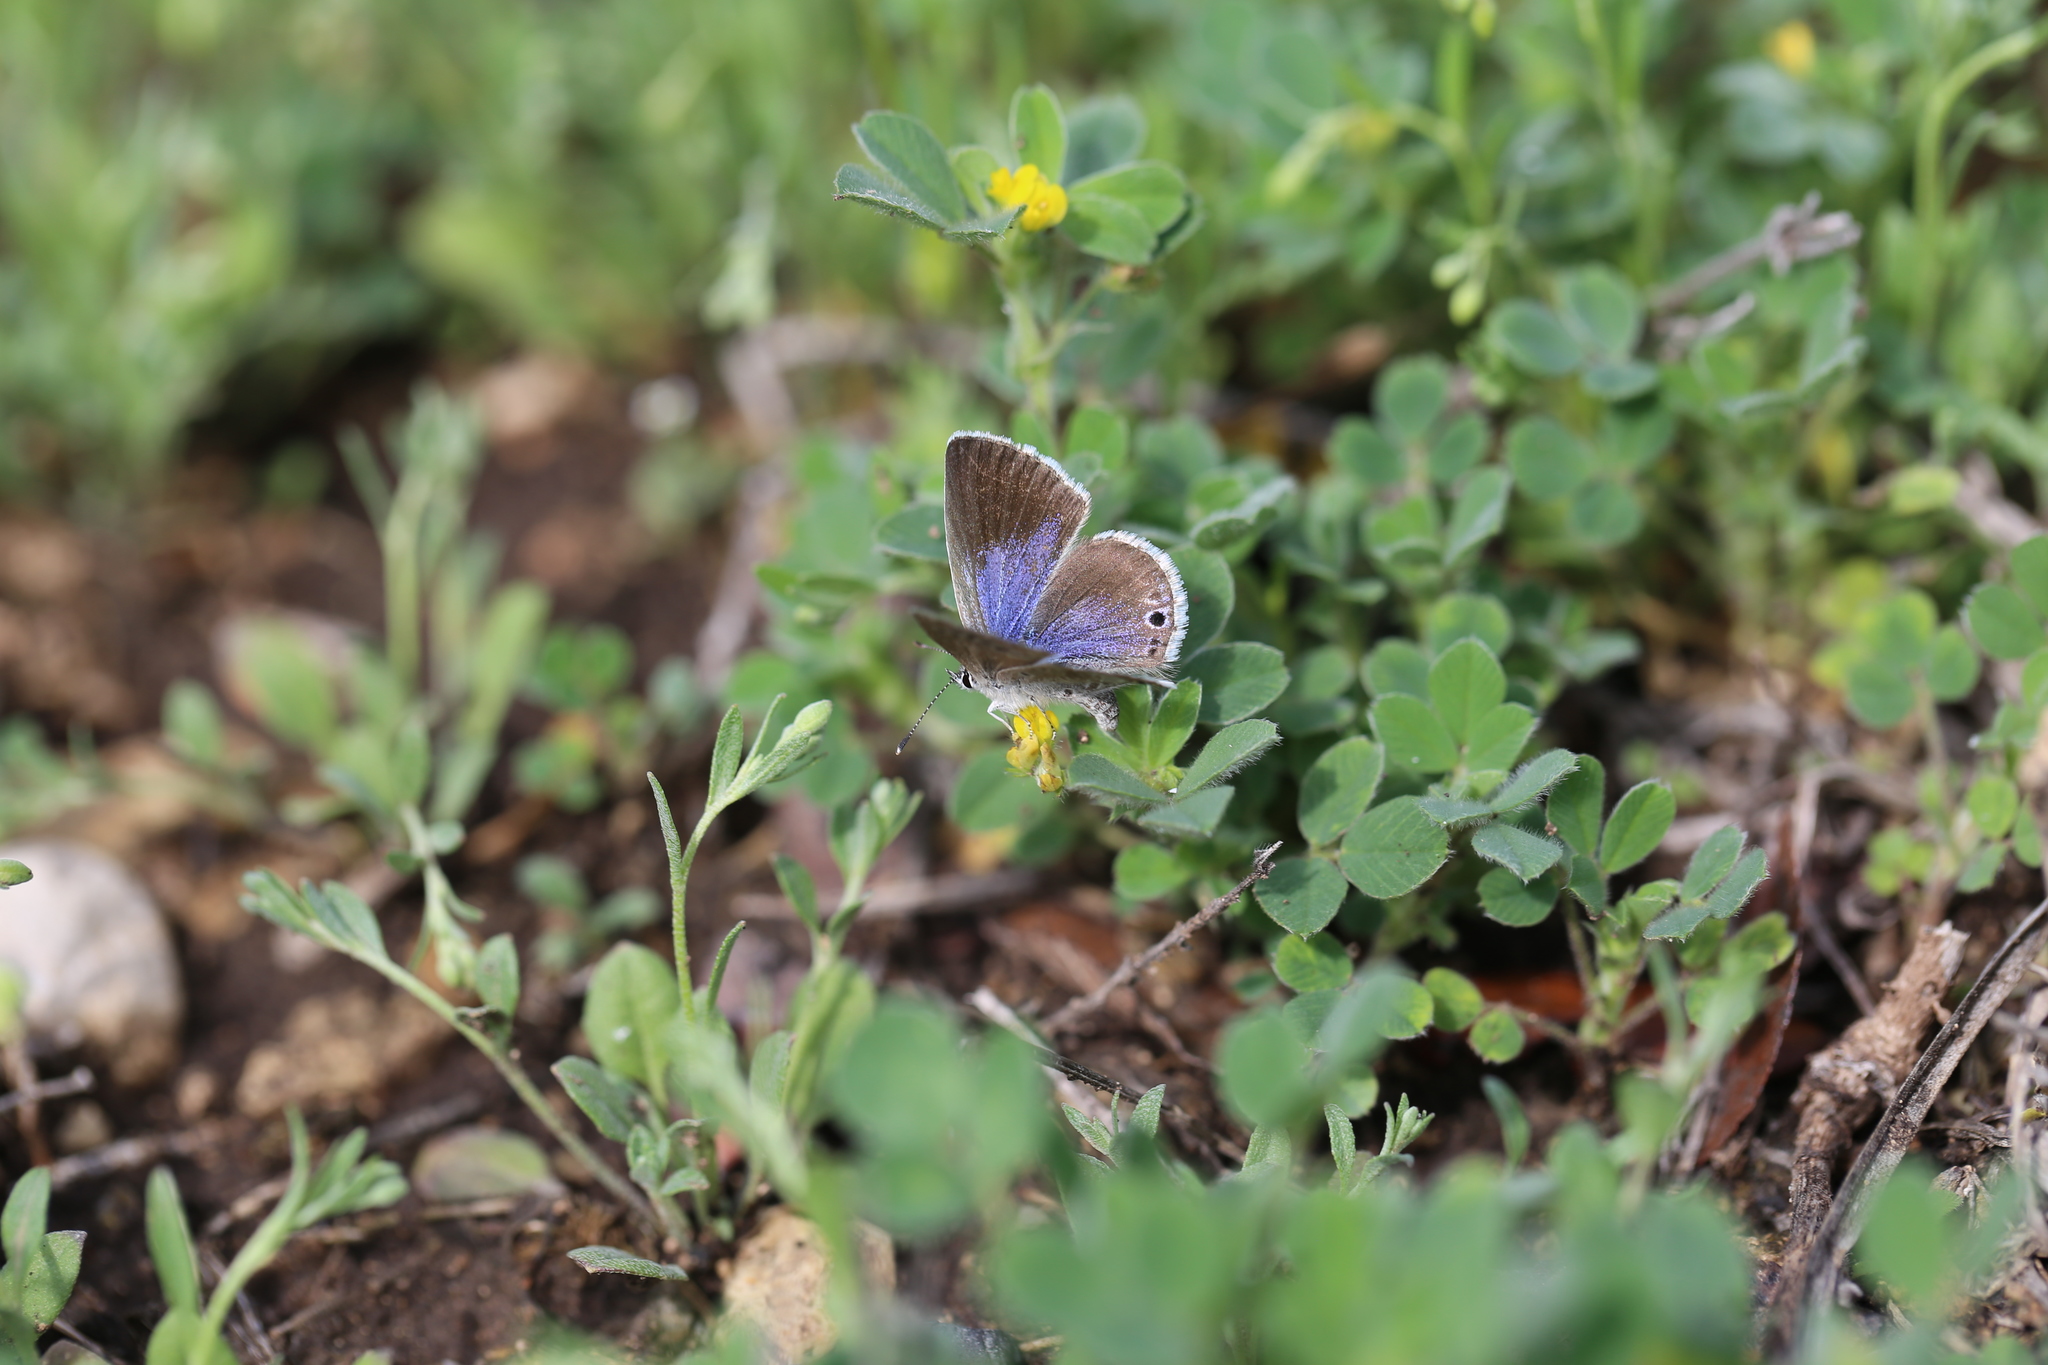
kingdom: Animalia
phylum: Arthropoda
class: Insecta
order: Lepidoptera
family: Lycaenidae
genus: Leptotes
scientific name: Leptotes marina
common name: Marine blue
